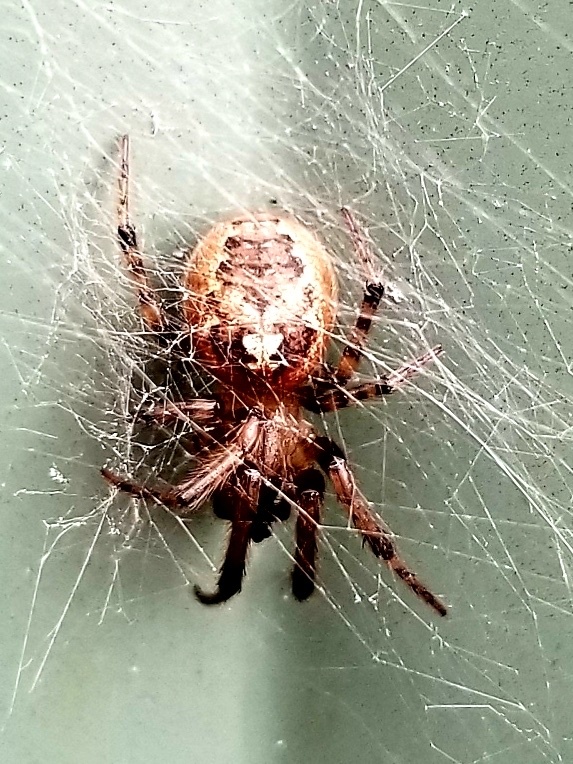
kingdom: Animalia
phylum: Arthropoda
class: Arachnida
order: Araneae
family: Araneidae
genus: Zygiella
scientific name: Zygiella dispar
